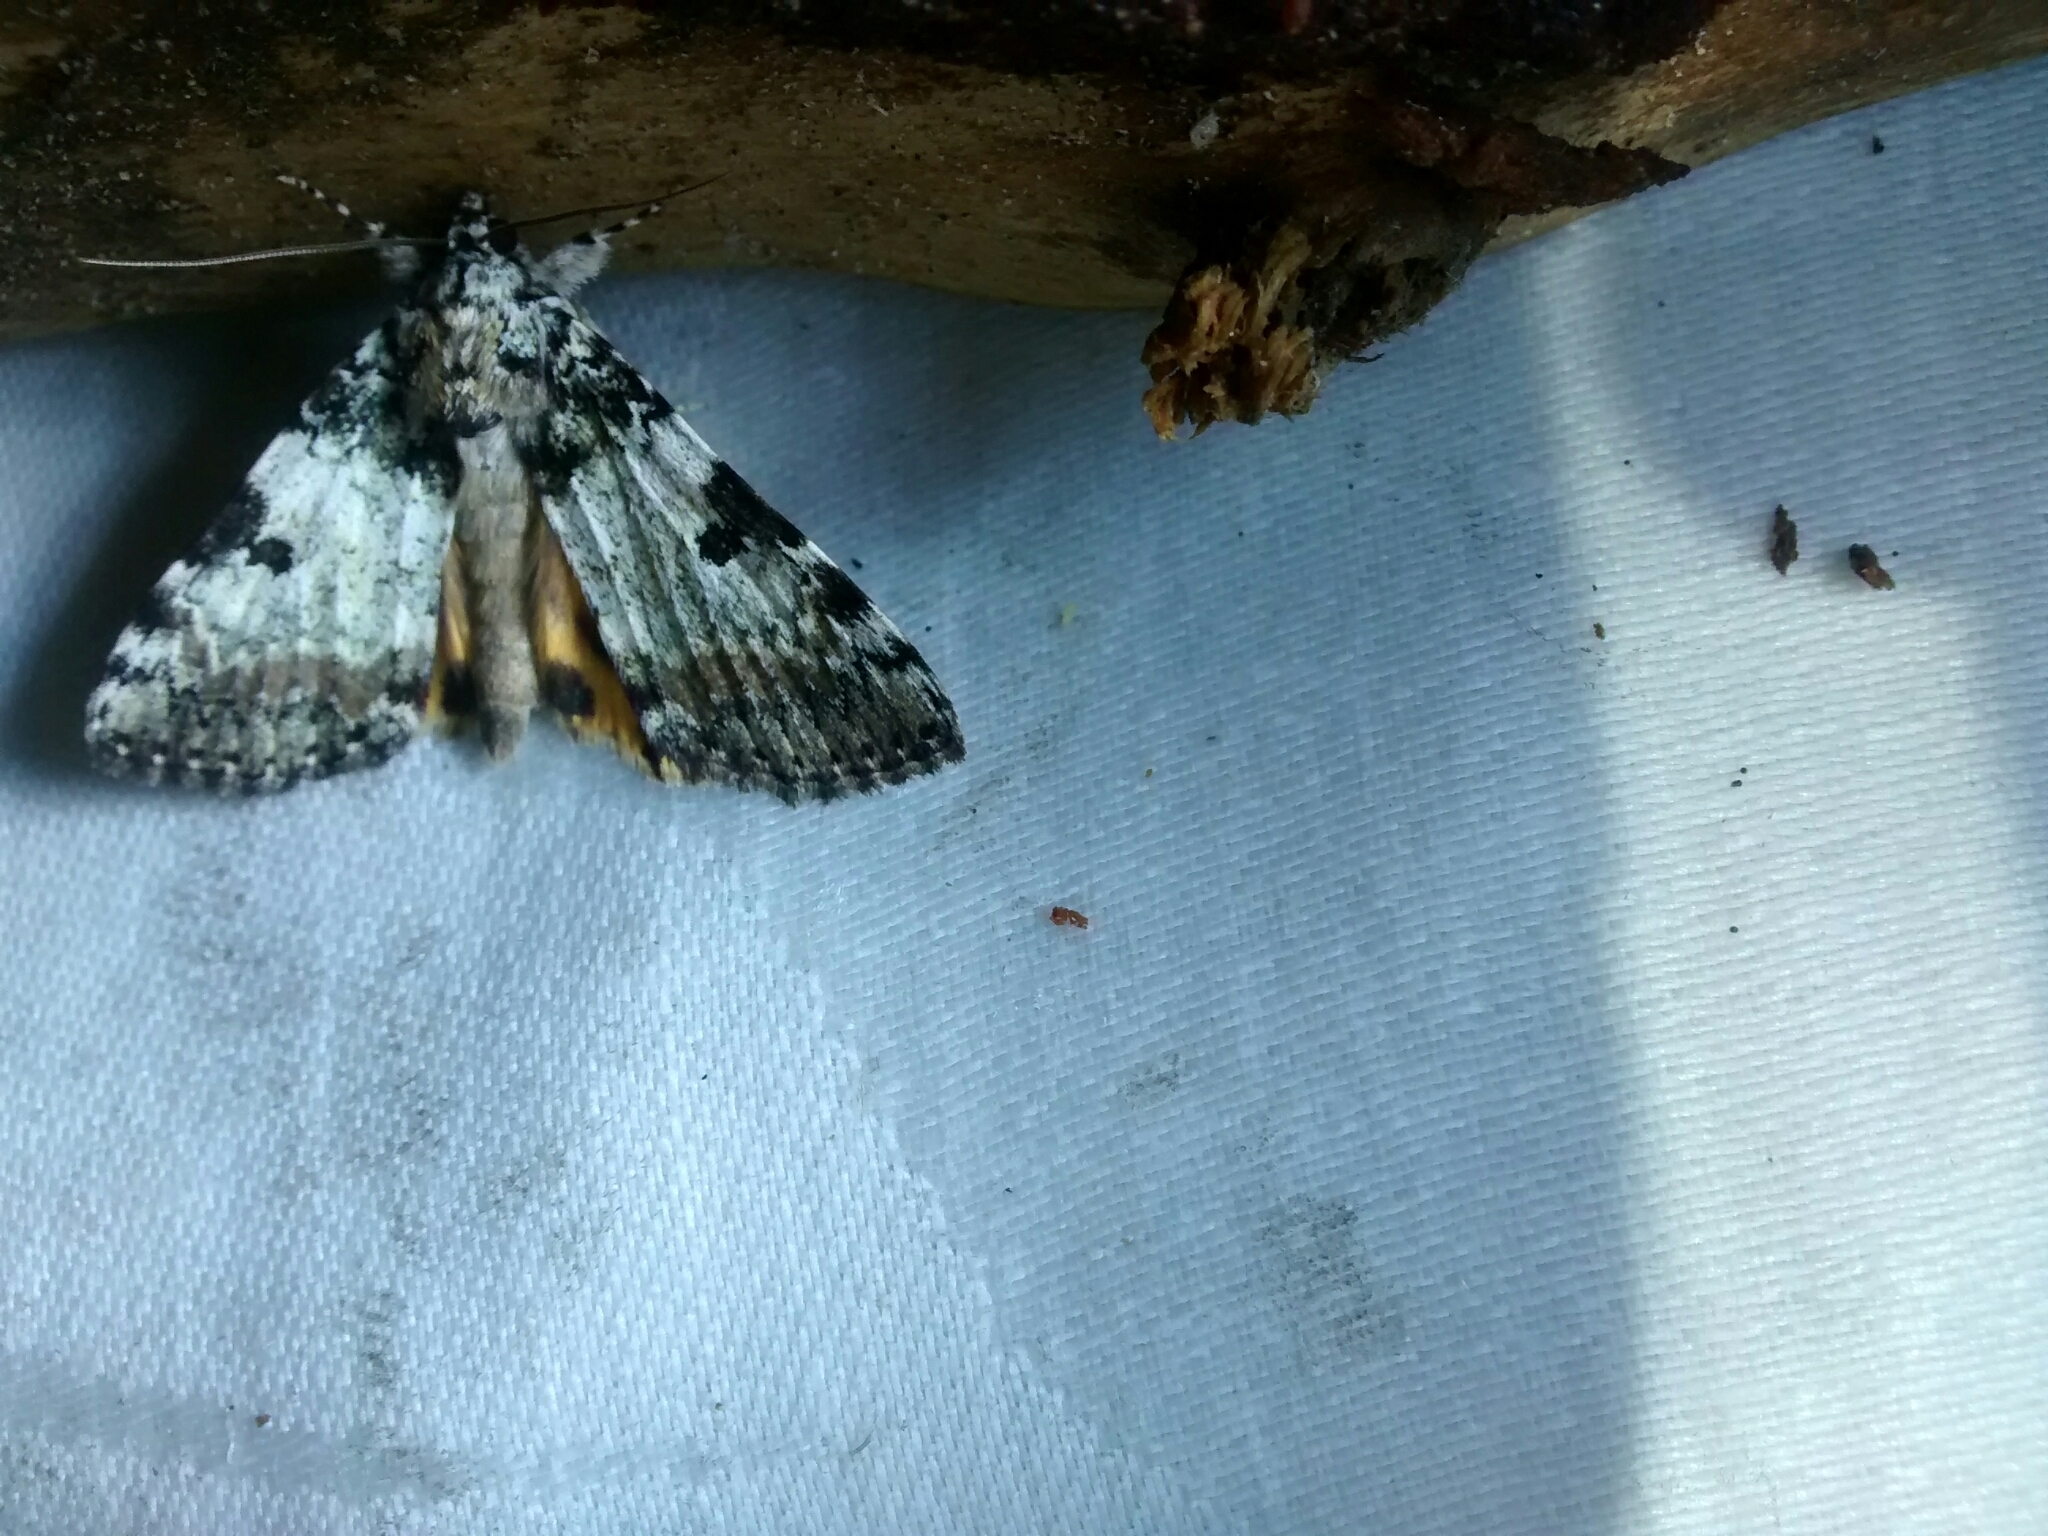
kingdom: Animalia
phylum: Arthropoda
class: Insecta
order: Lepidoptera
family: Erebidae
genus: Catocala
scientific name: Catocala connubialis
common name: Connubial underwing
